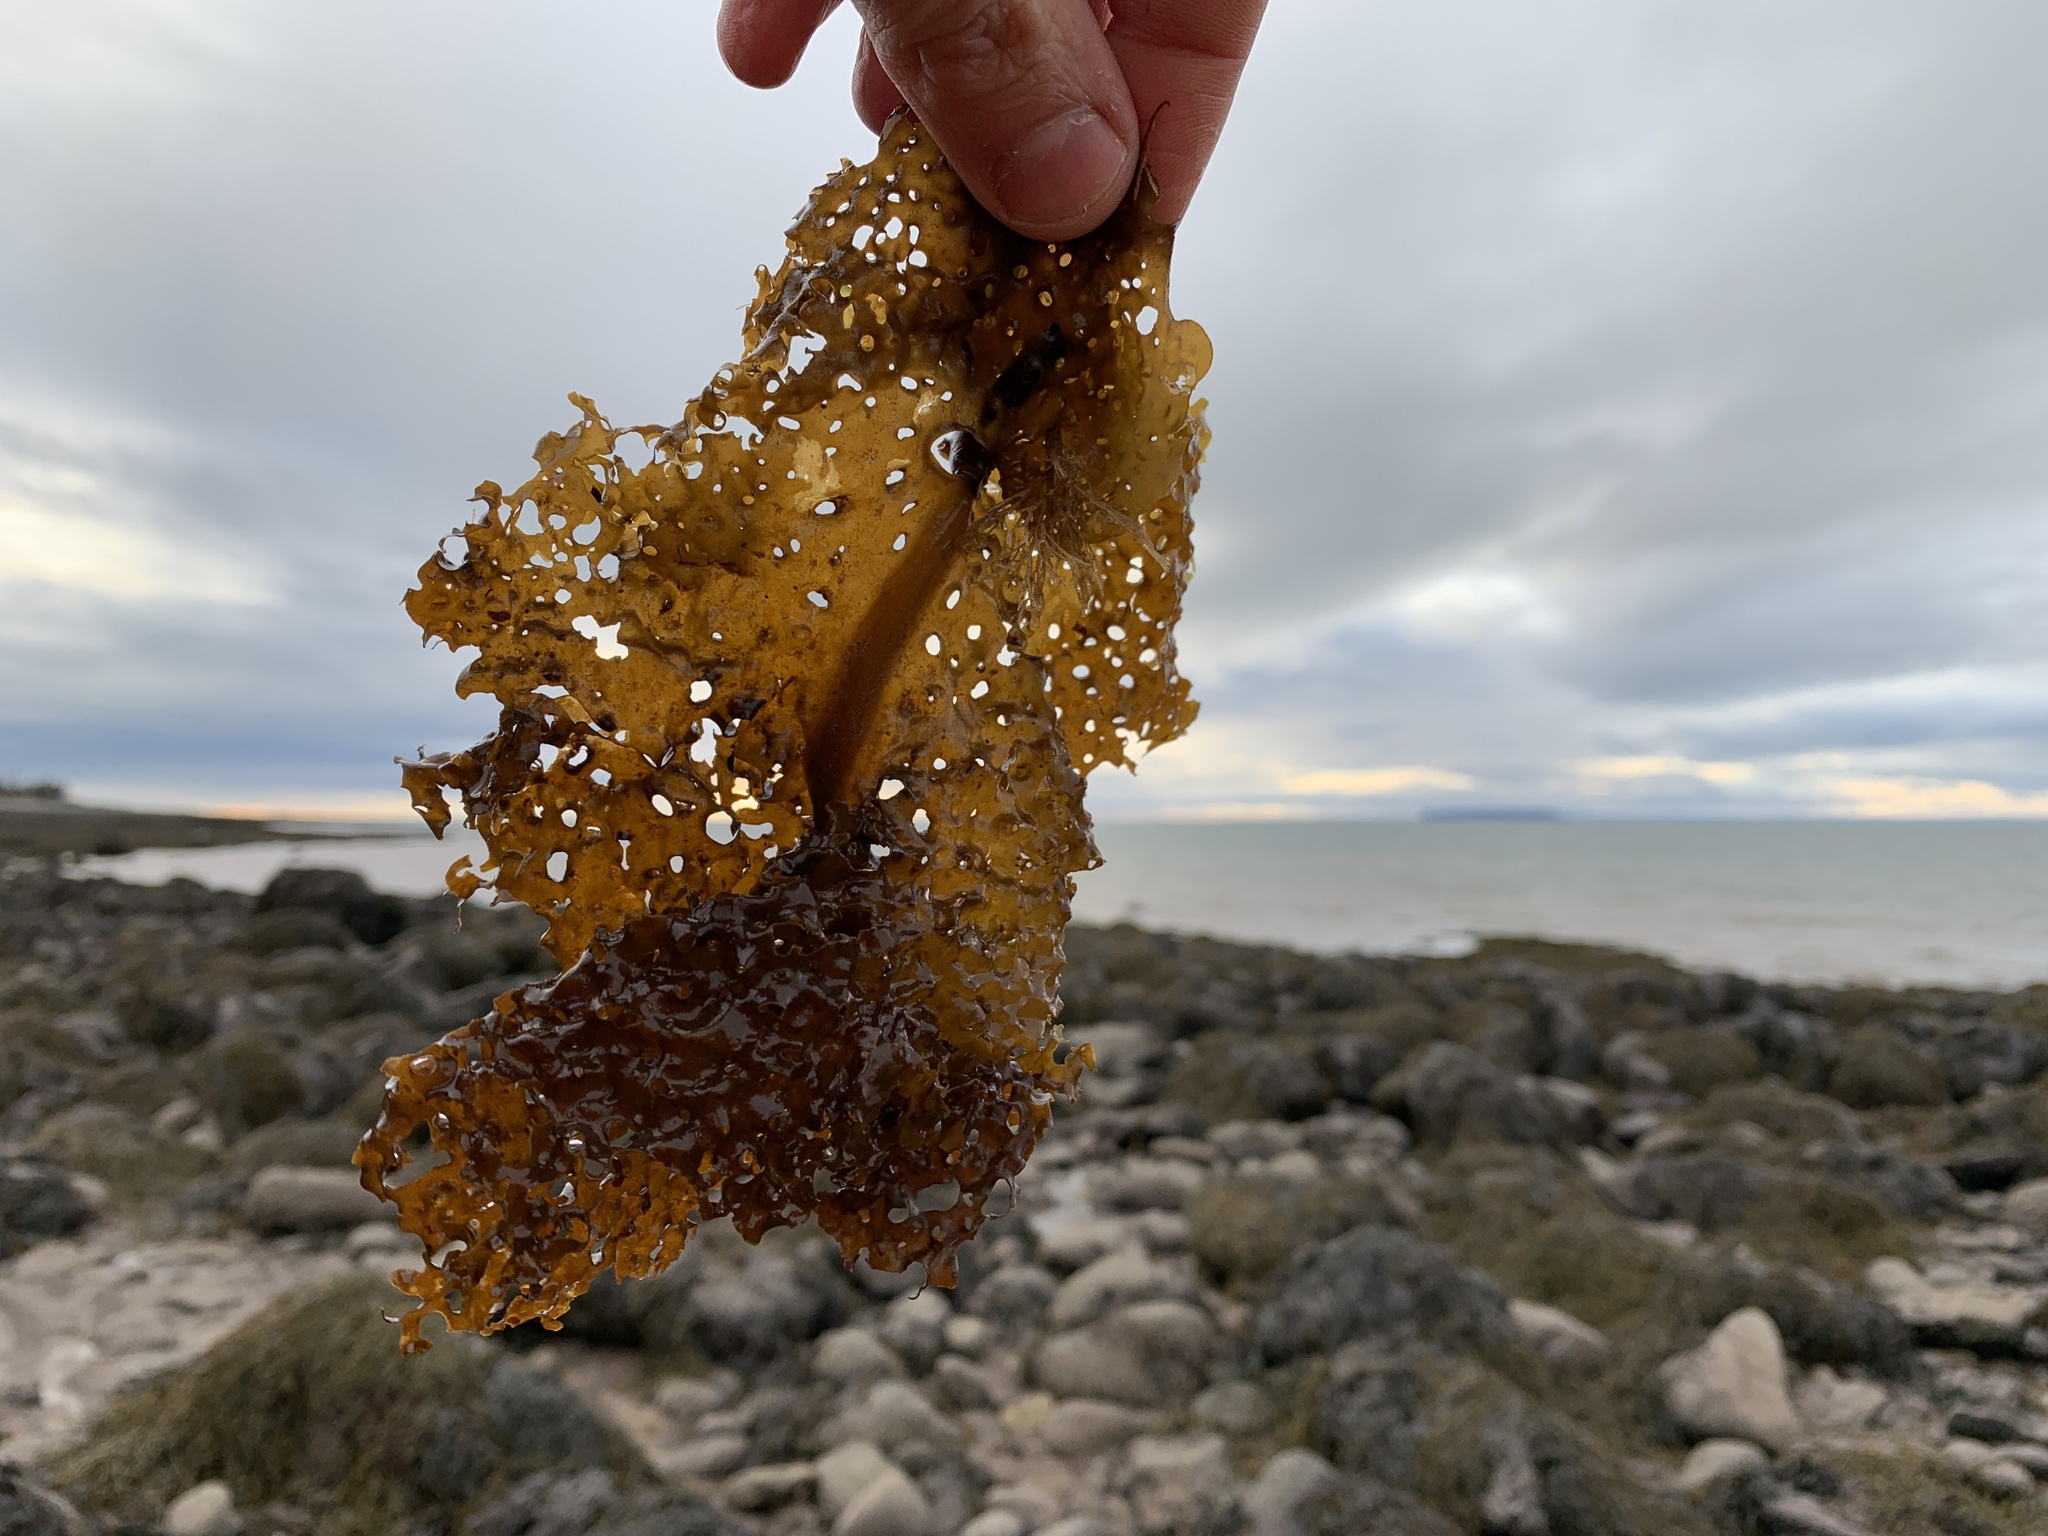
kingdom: Chromista
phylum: Ochrophyta
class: Phaeophyceae
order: Laminariales
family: Costariaceae
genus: Agarum
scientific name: Agarum clathratum
